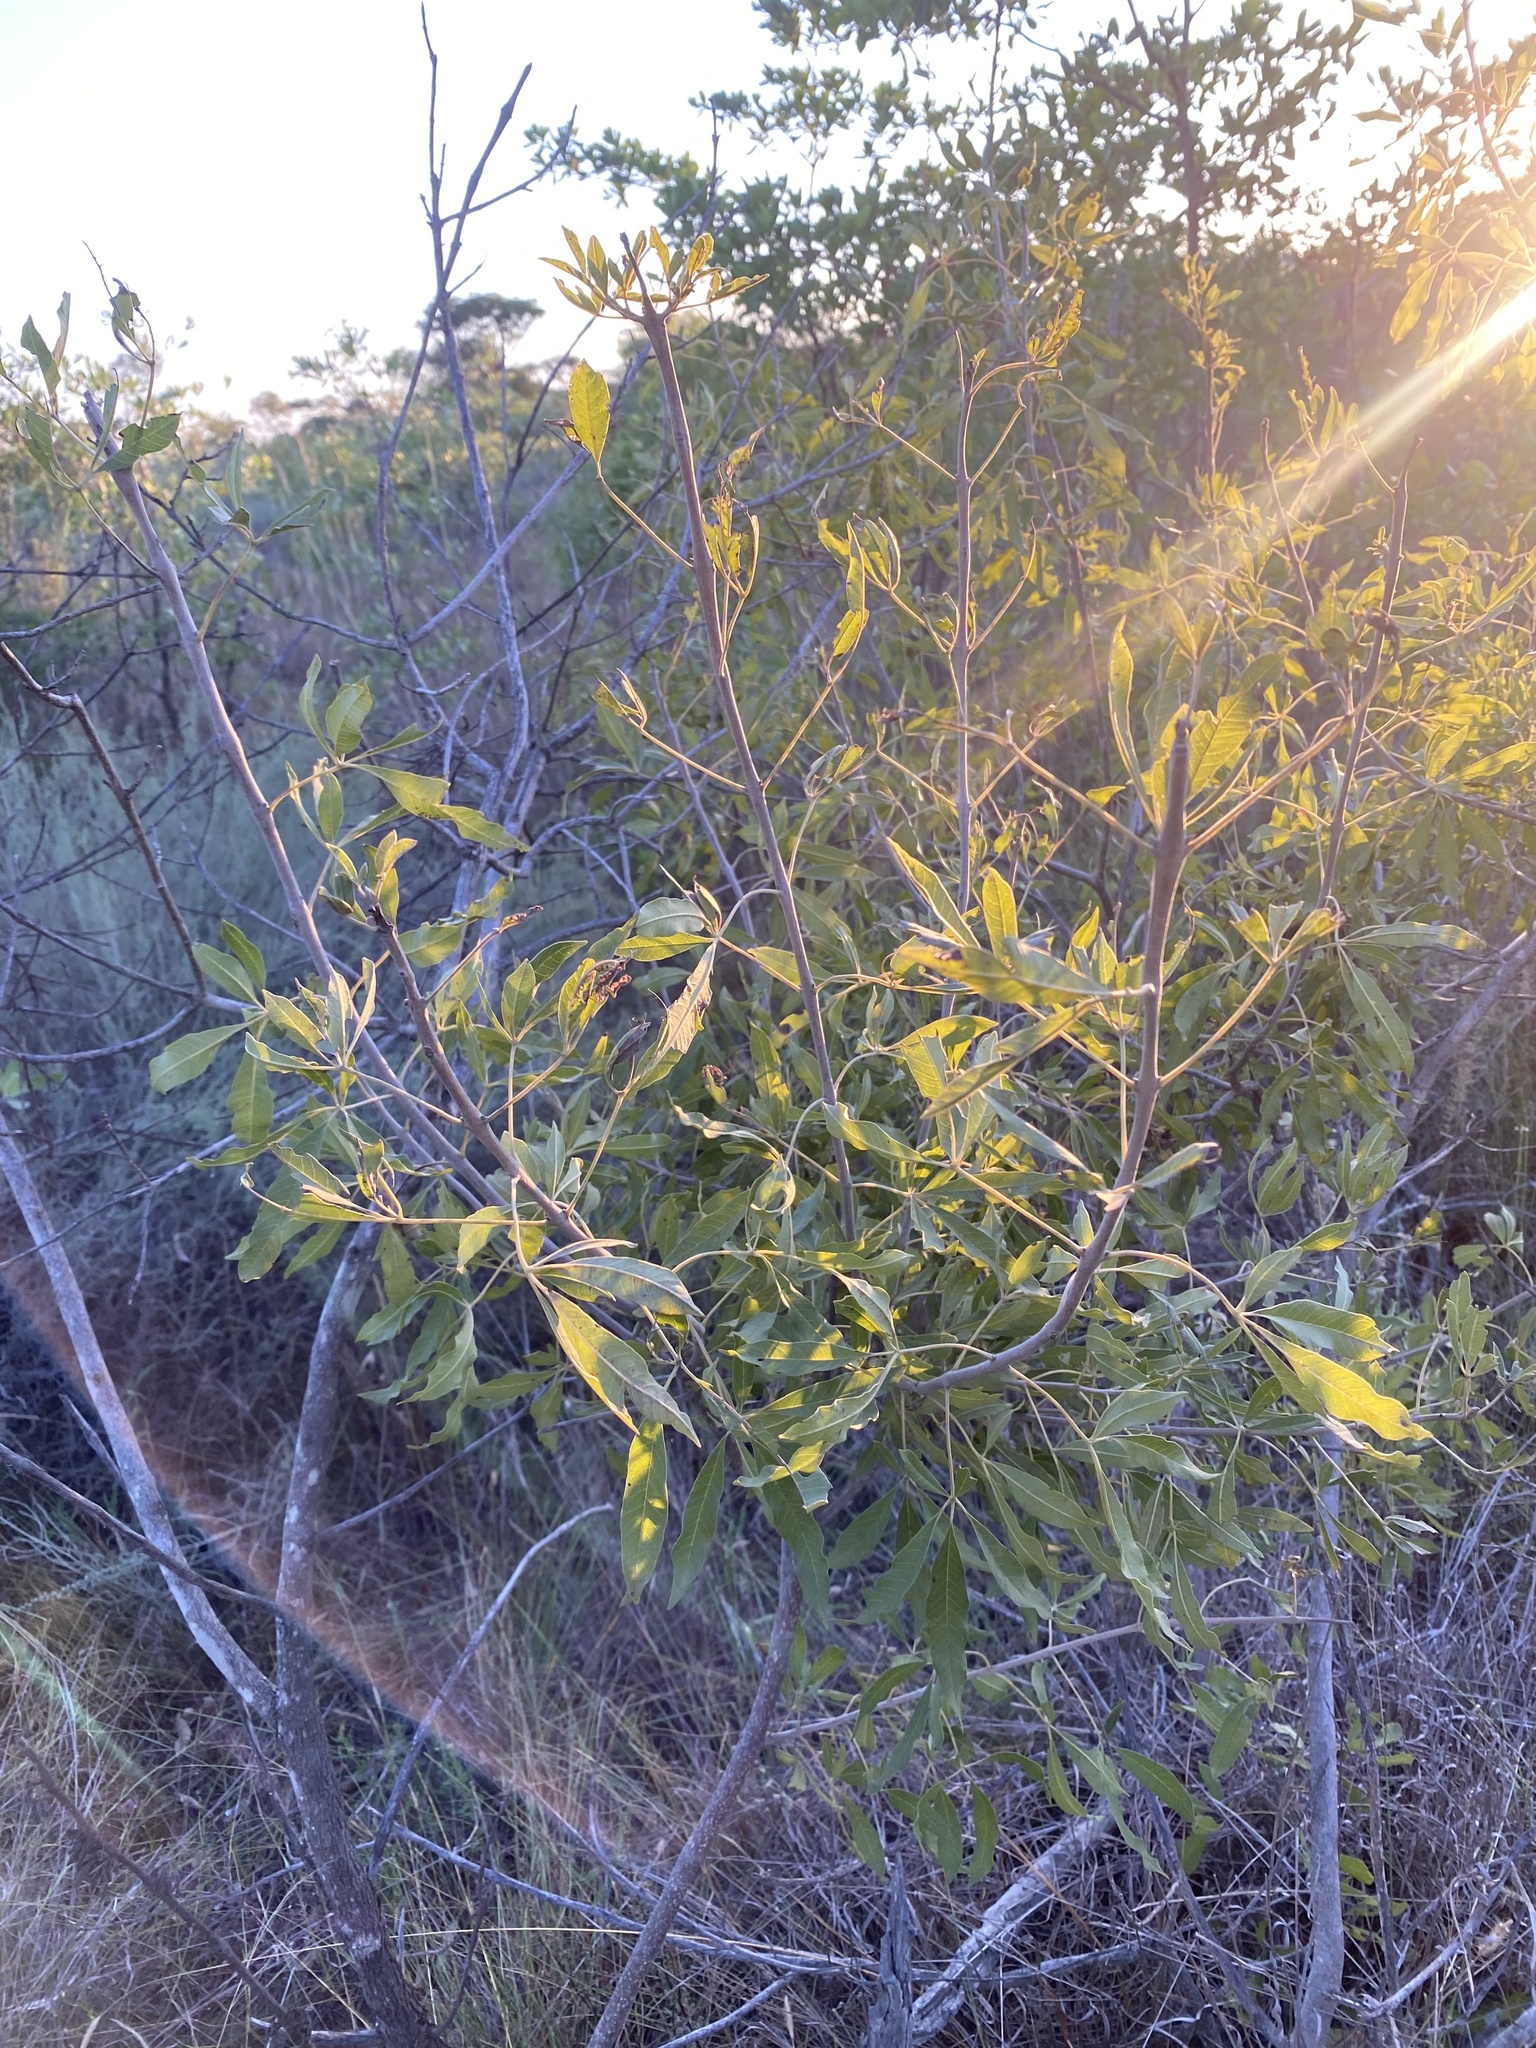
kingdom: Plantae
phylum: Tracheophyta
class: Magnoliopsida
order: Lamiales
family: Lamiaceae
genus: Vitex
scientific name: Vitex rehmannii
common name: Pipe-stem fingerleaf
